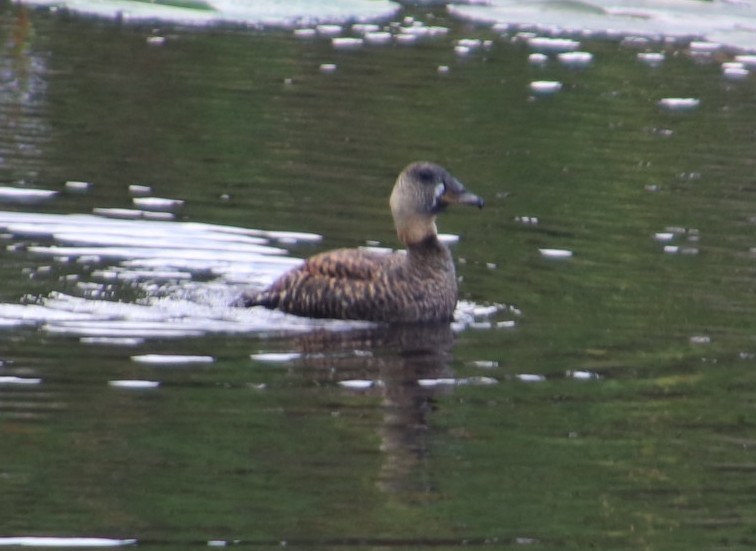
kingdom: Animalia
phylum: Chordata
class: Aves
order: Anseriformes
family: Anatidae
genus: Thalassornis
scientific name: Thalassornis leuconotus
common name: White-backed duck
